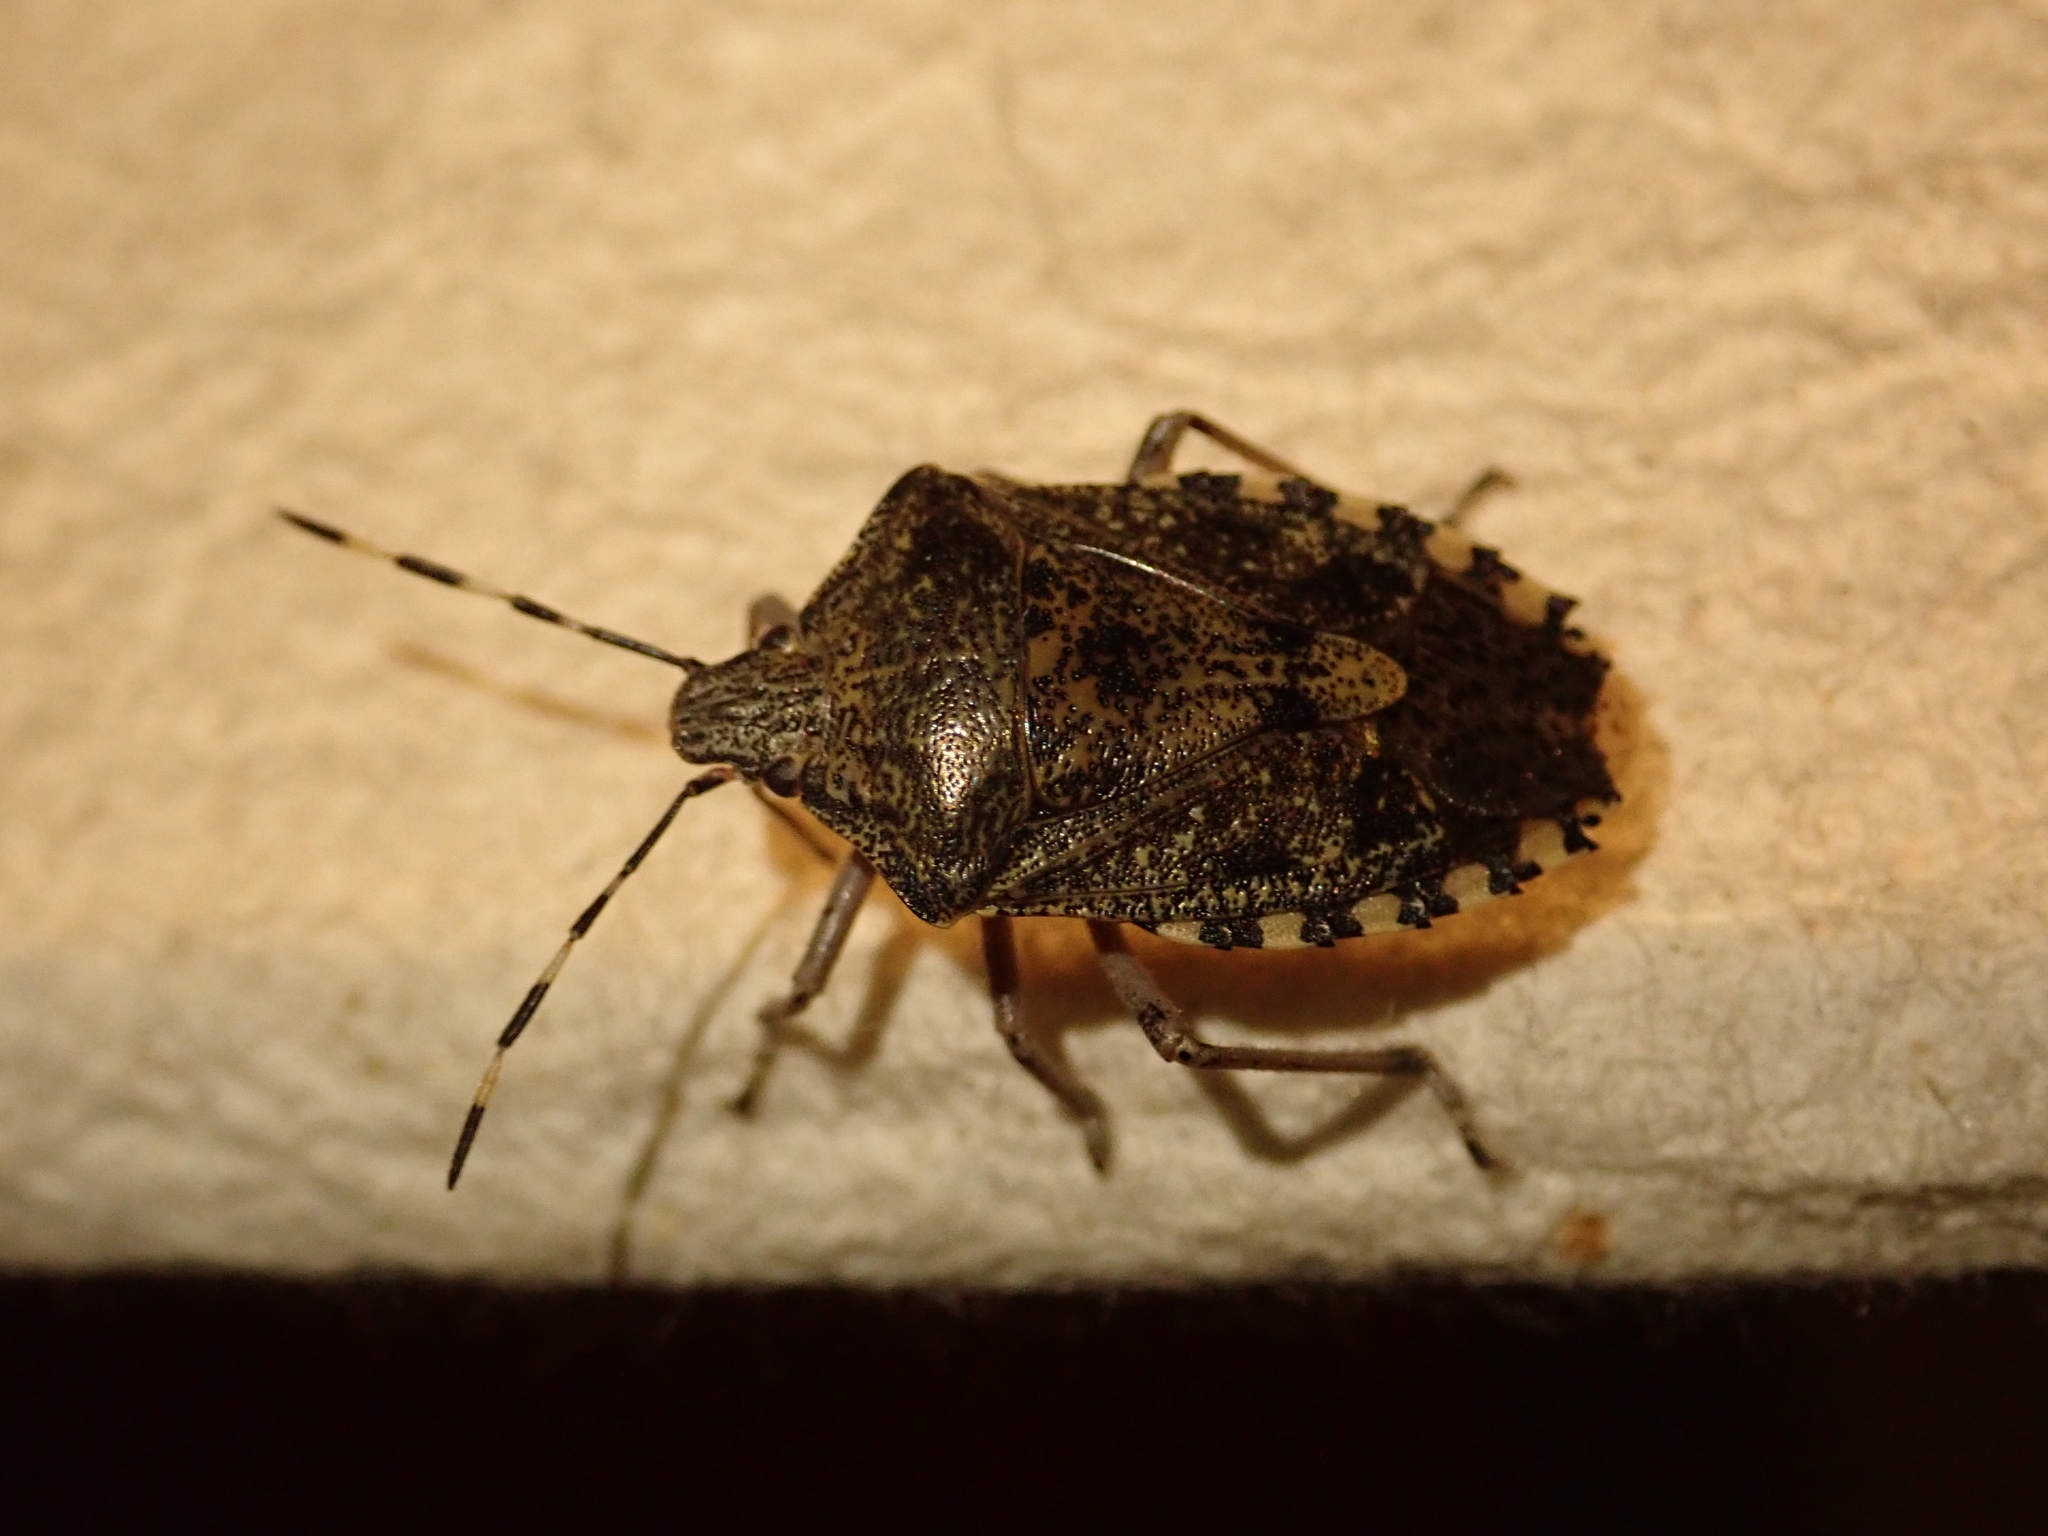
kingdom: Animalia
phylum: Arthropoda
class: Insecta
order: Hemiptera
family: Pentatomidae
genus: Rhaphigaster
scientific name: Rhaphigaster nebulosa
